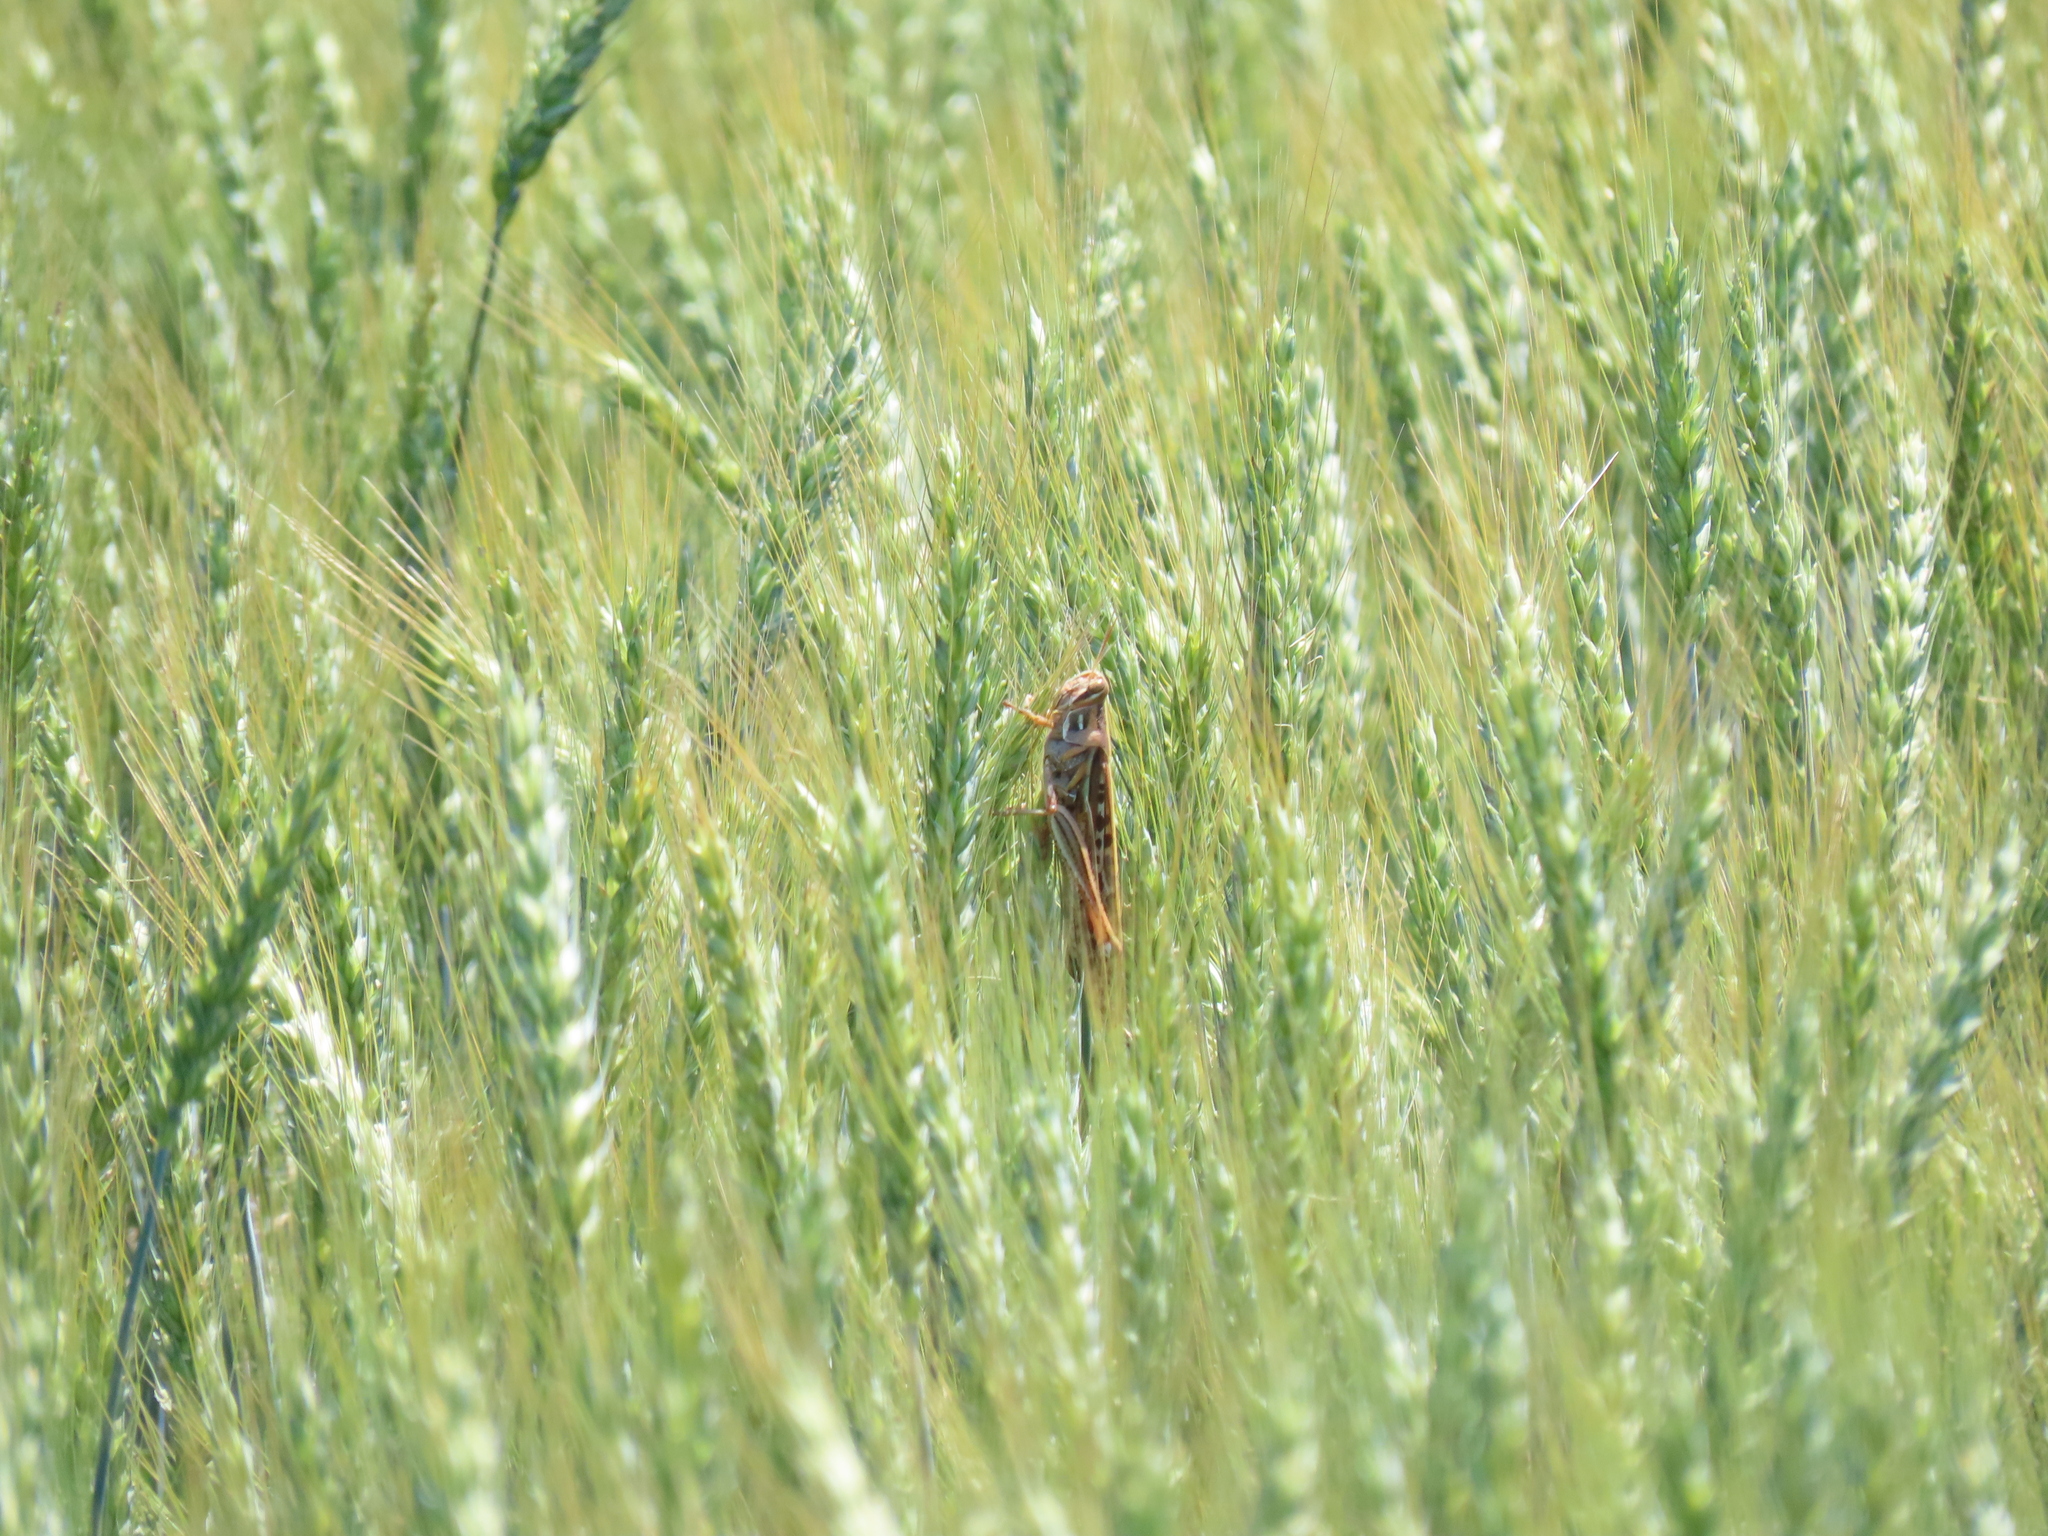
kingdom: Animalia
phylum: Arthropoda
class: Insecta
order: Orthoptera
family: Acrididae
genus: Schistocerca
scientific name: Schistocerca americana
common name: American bird locust
